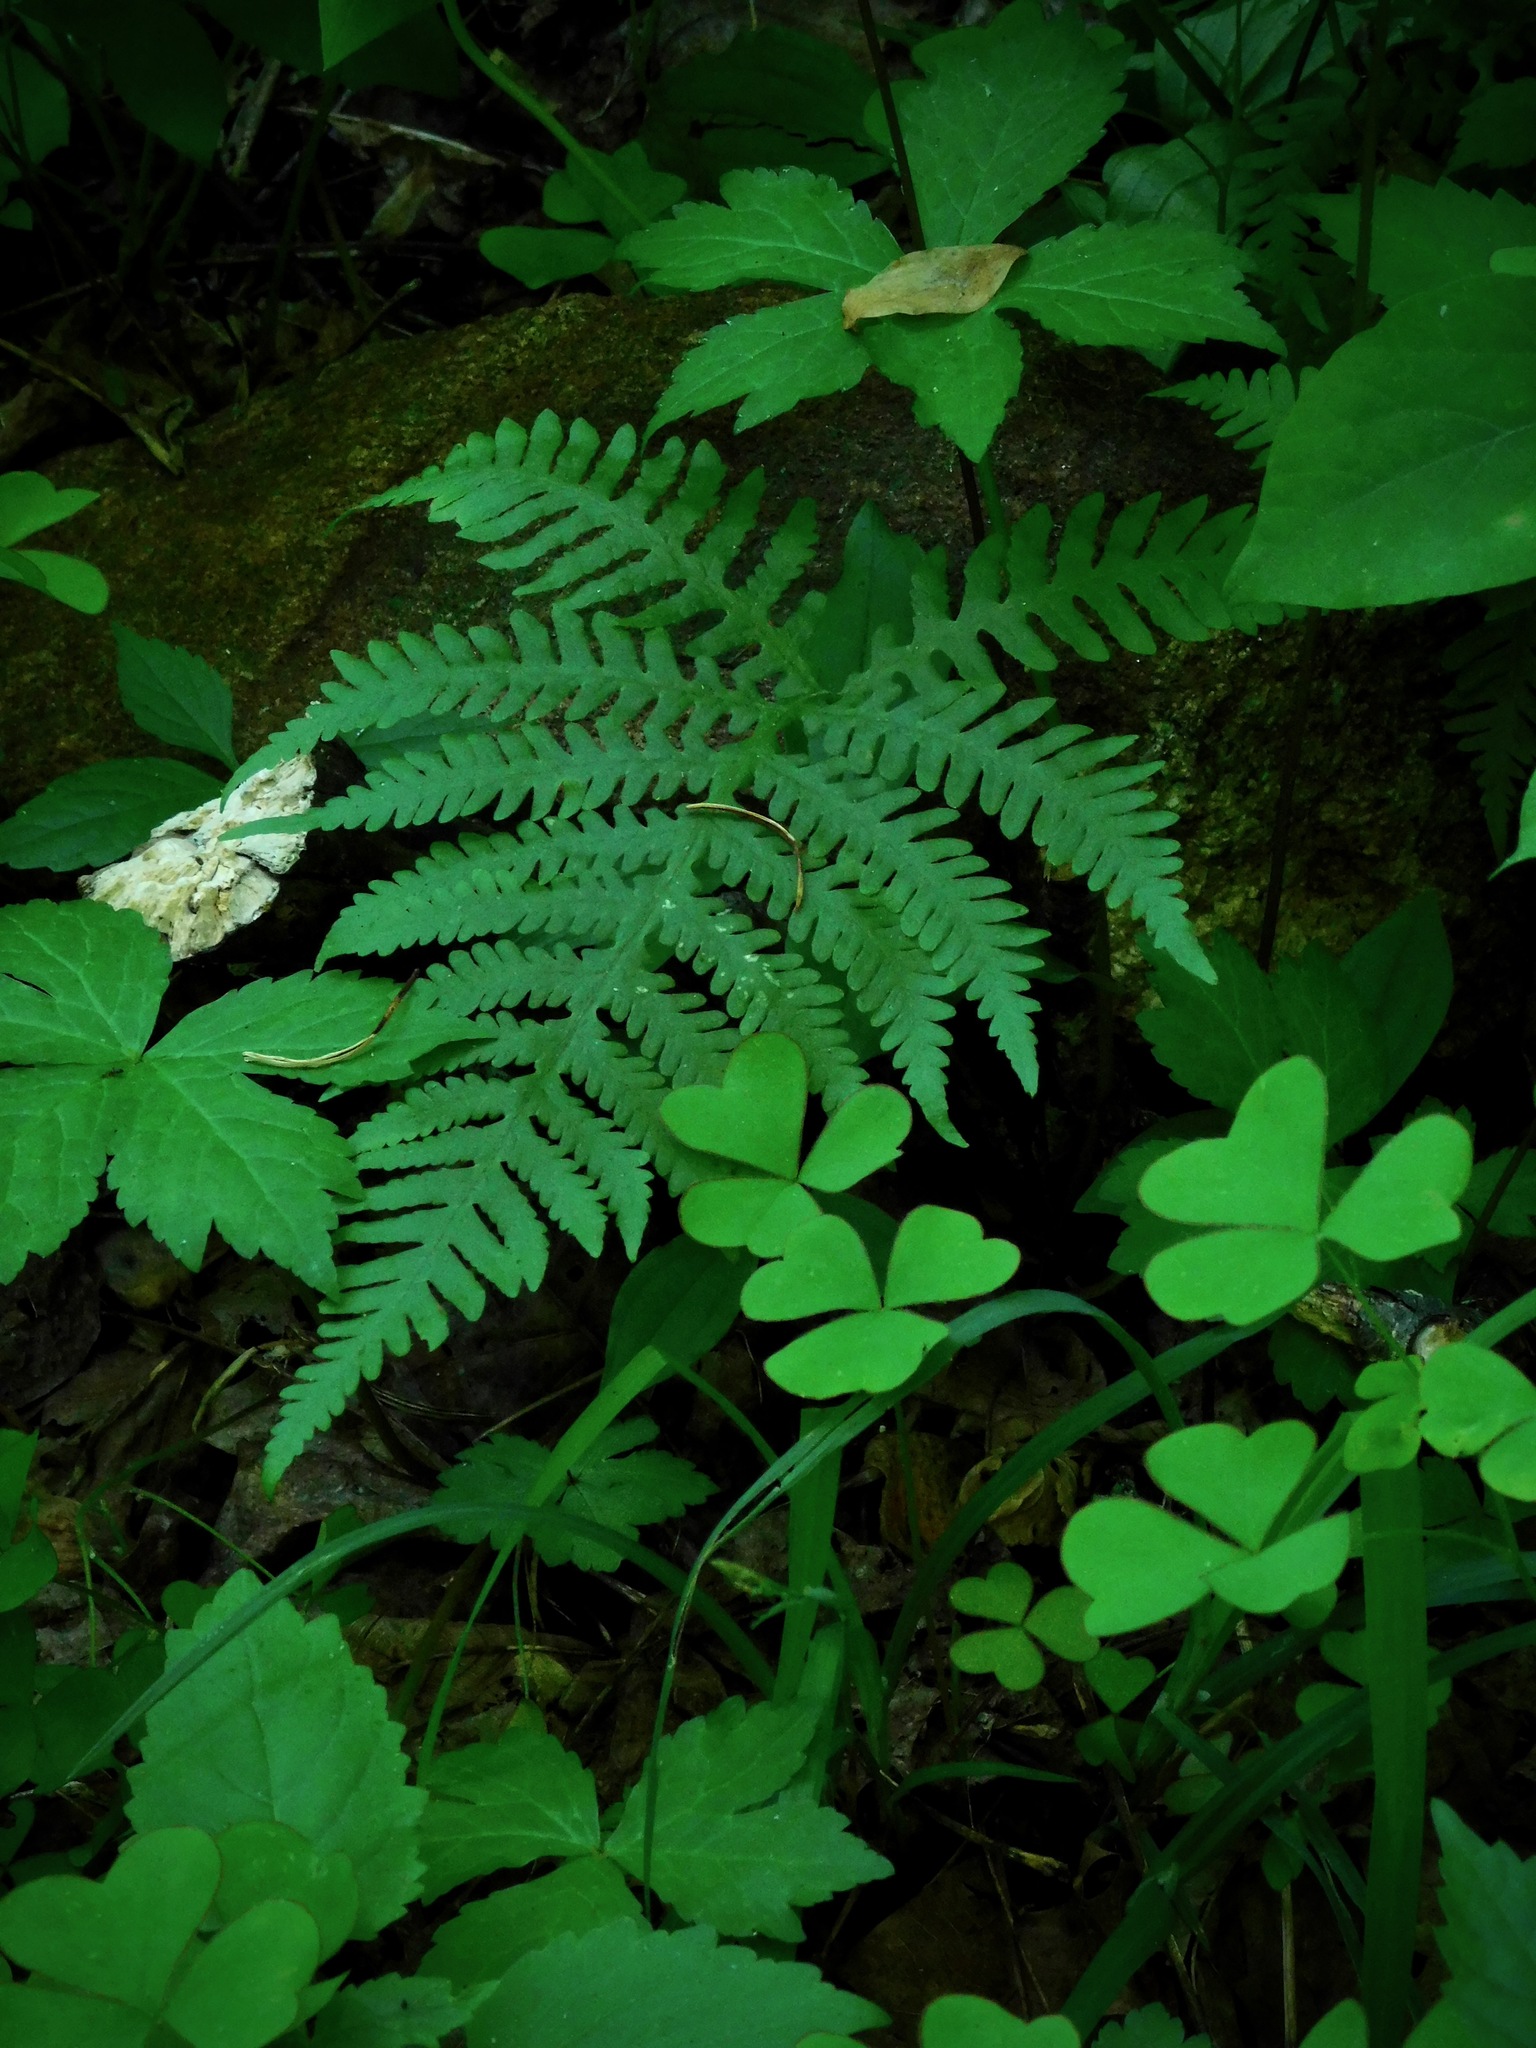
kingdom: Plantae
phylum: Tracheophyta
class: Polypodiopsida
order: Polypodiales
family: Thelypteridaceae
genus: Phegopteris
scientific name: Phegopteris hexagonoptera
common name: Broad beech fern
